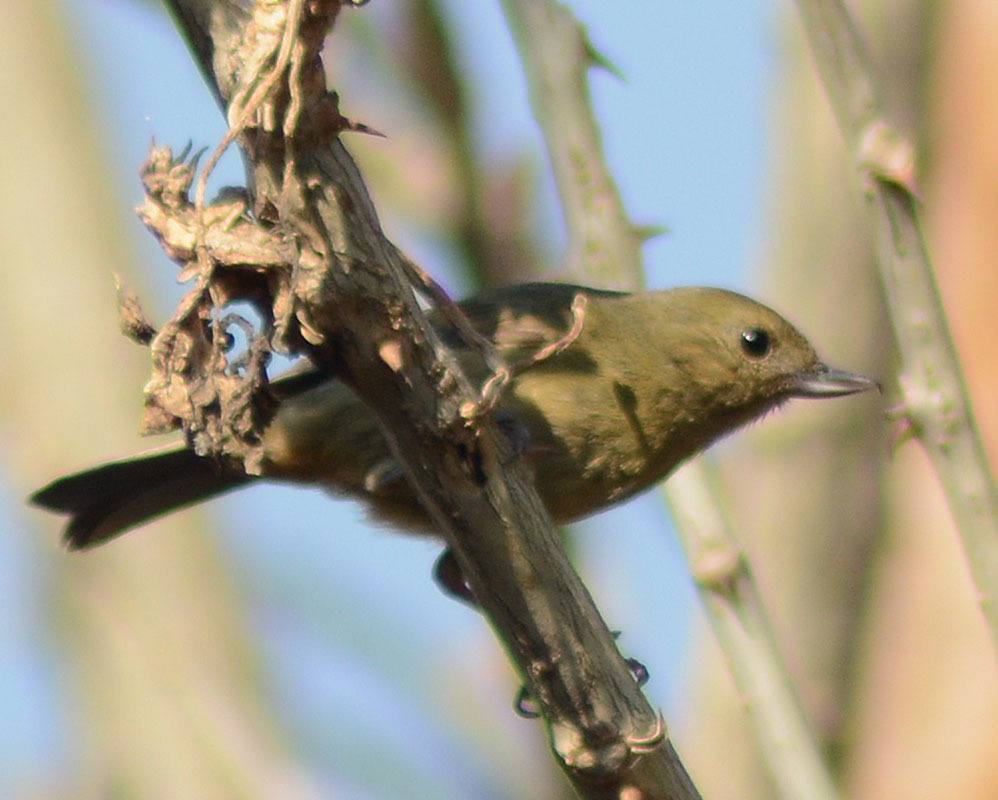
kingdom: Animalia
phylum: Chordata
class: Aves
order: Passeriformes
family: Thraupidae
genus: Diglossa
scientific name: Diglossa baritula
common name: Cinnamon-bellied flowerpiercer
